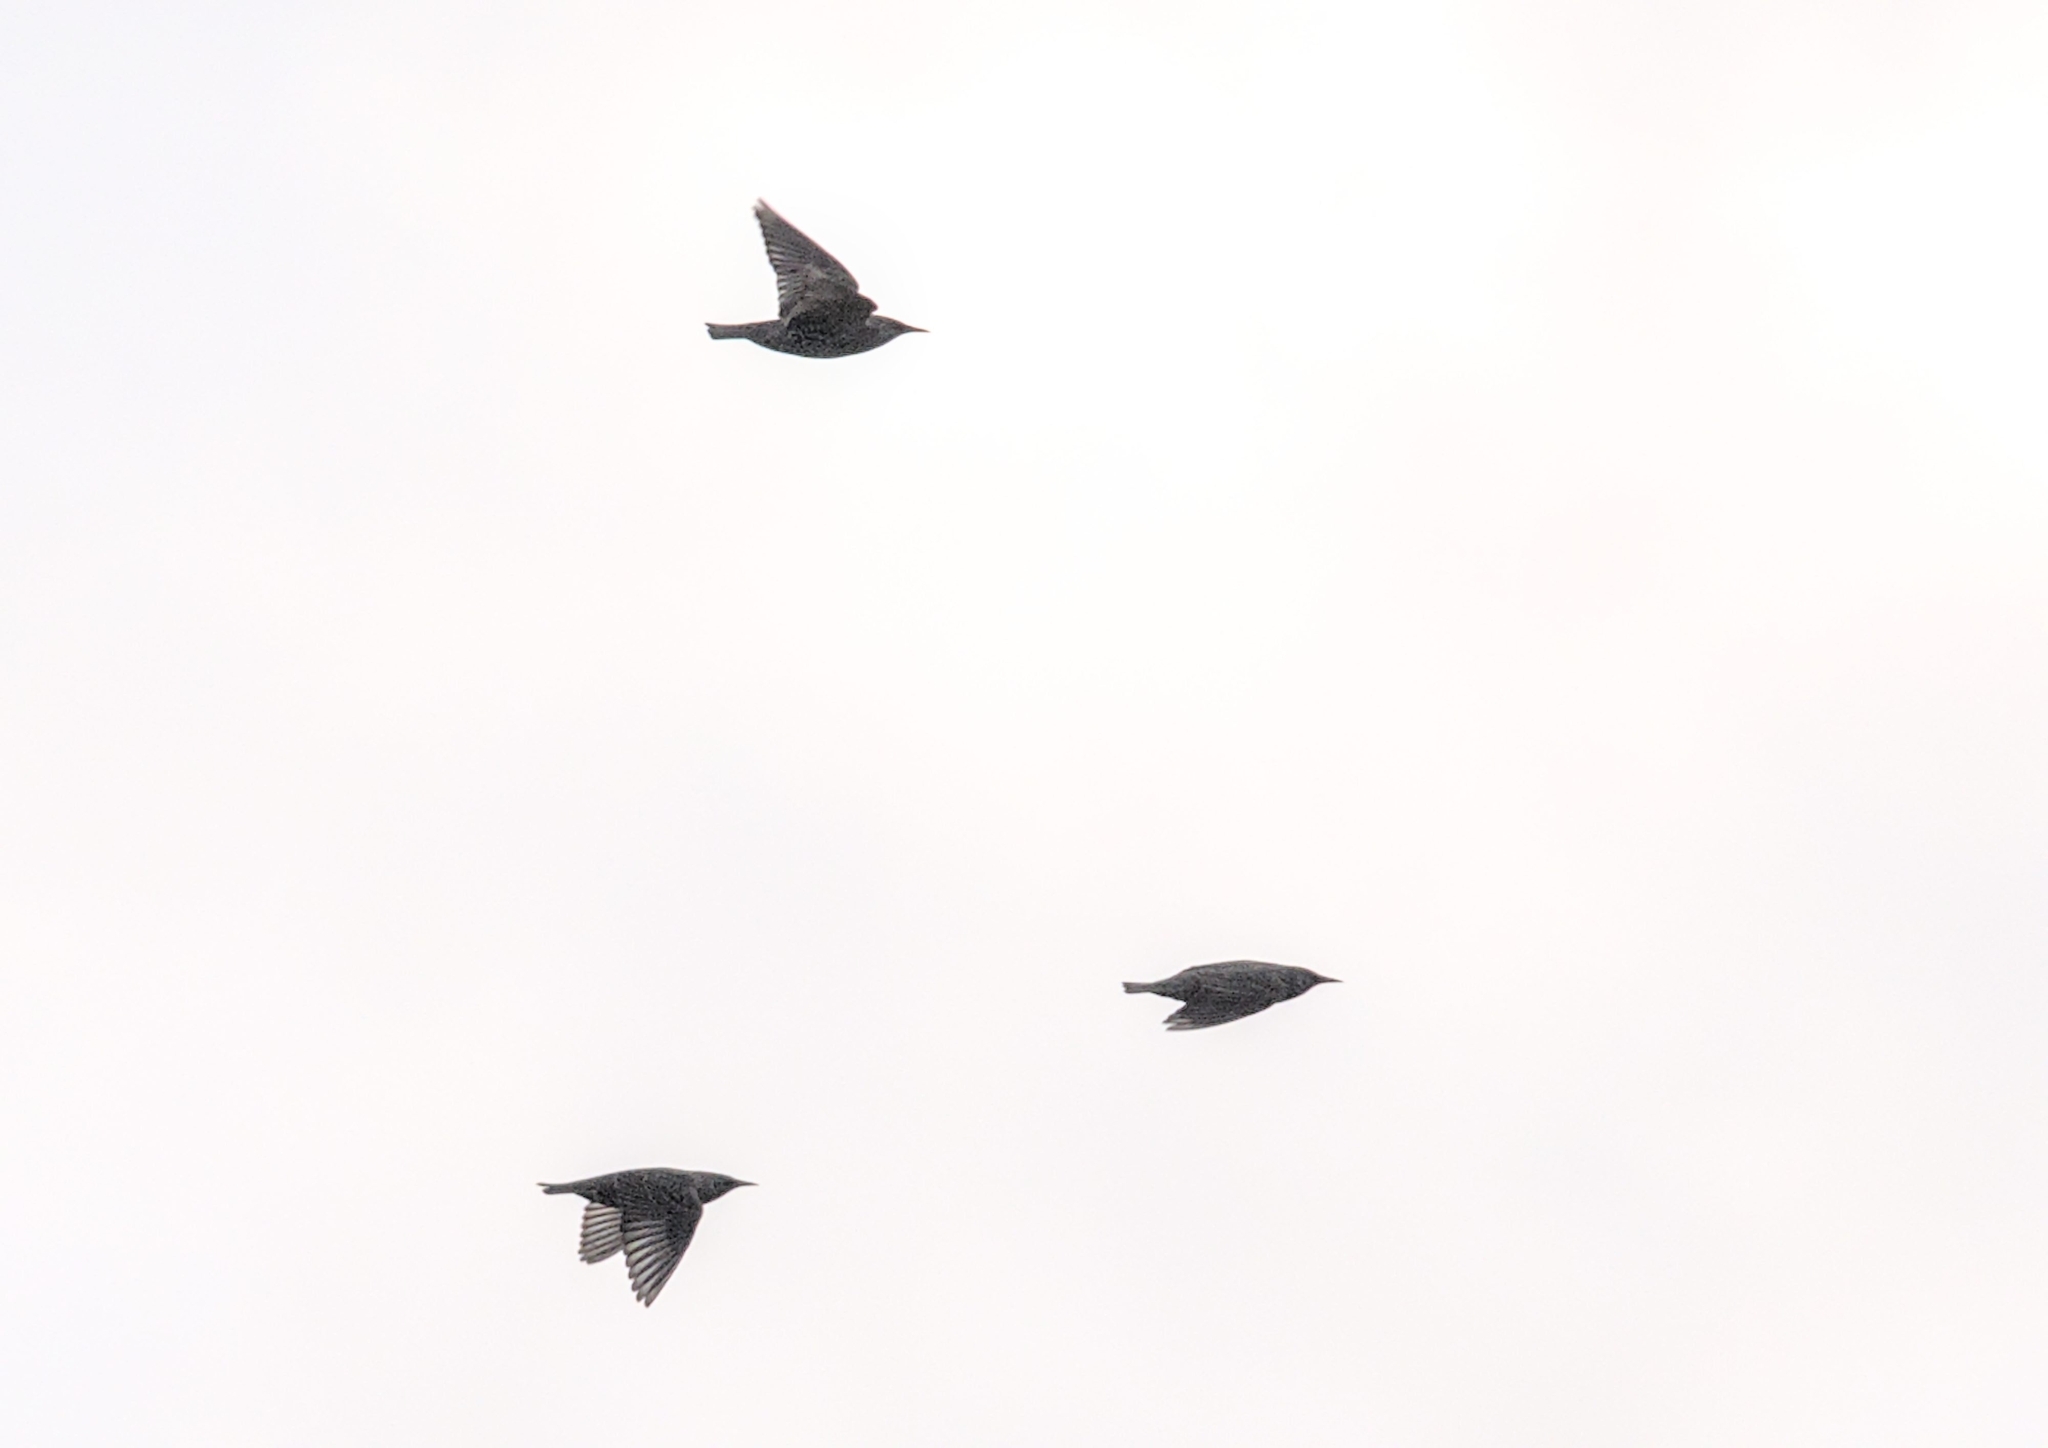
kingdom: Animalia
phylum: Chordata
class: Aves
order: Passeriformes
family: Sturnidae
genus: Sturnus
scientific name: Sturnus vulgaris
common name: Common starling
